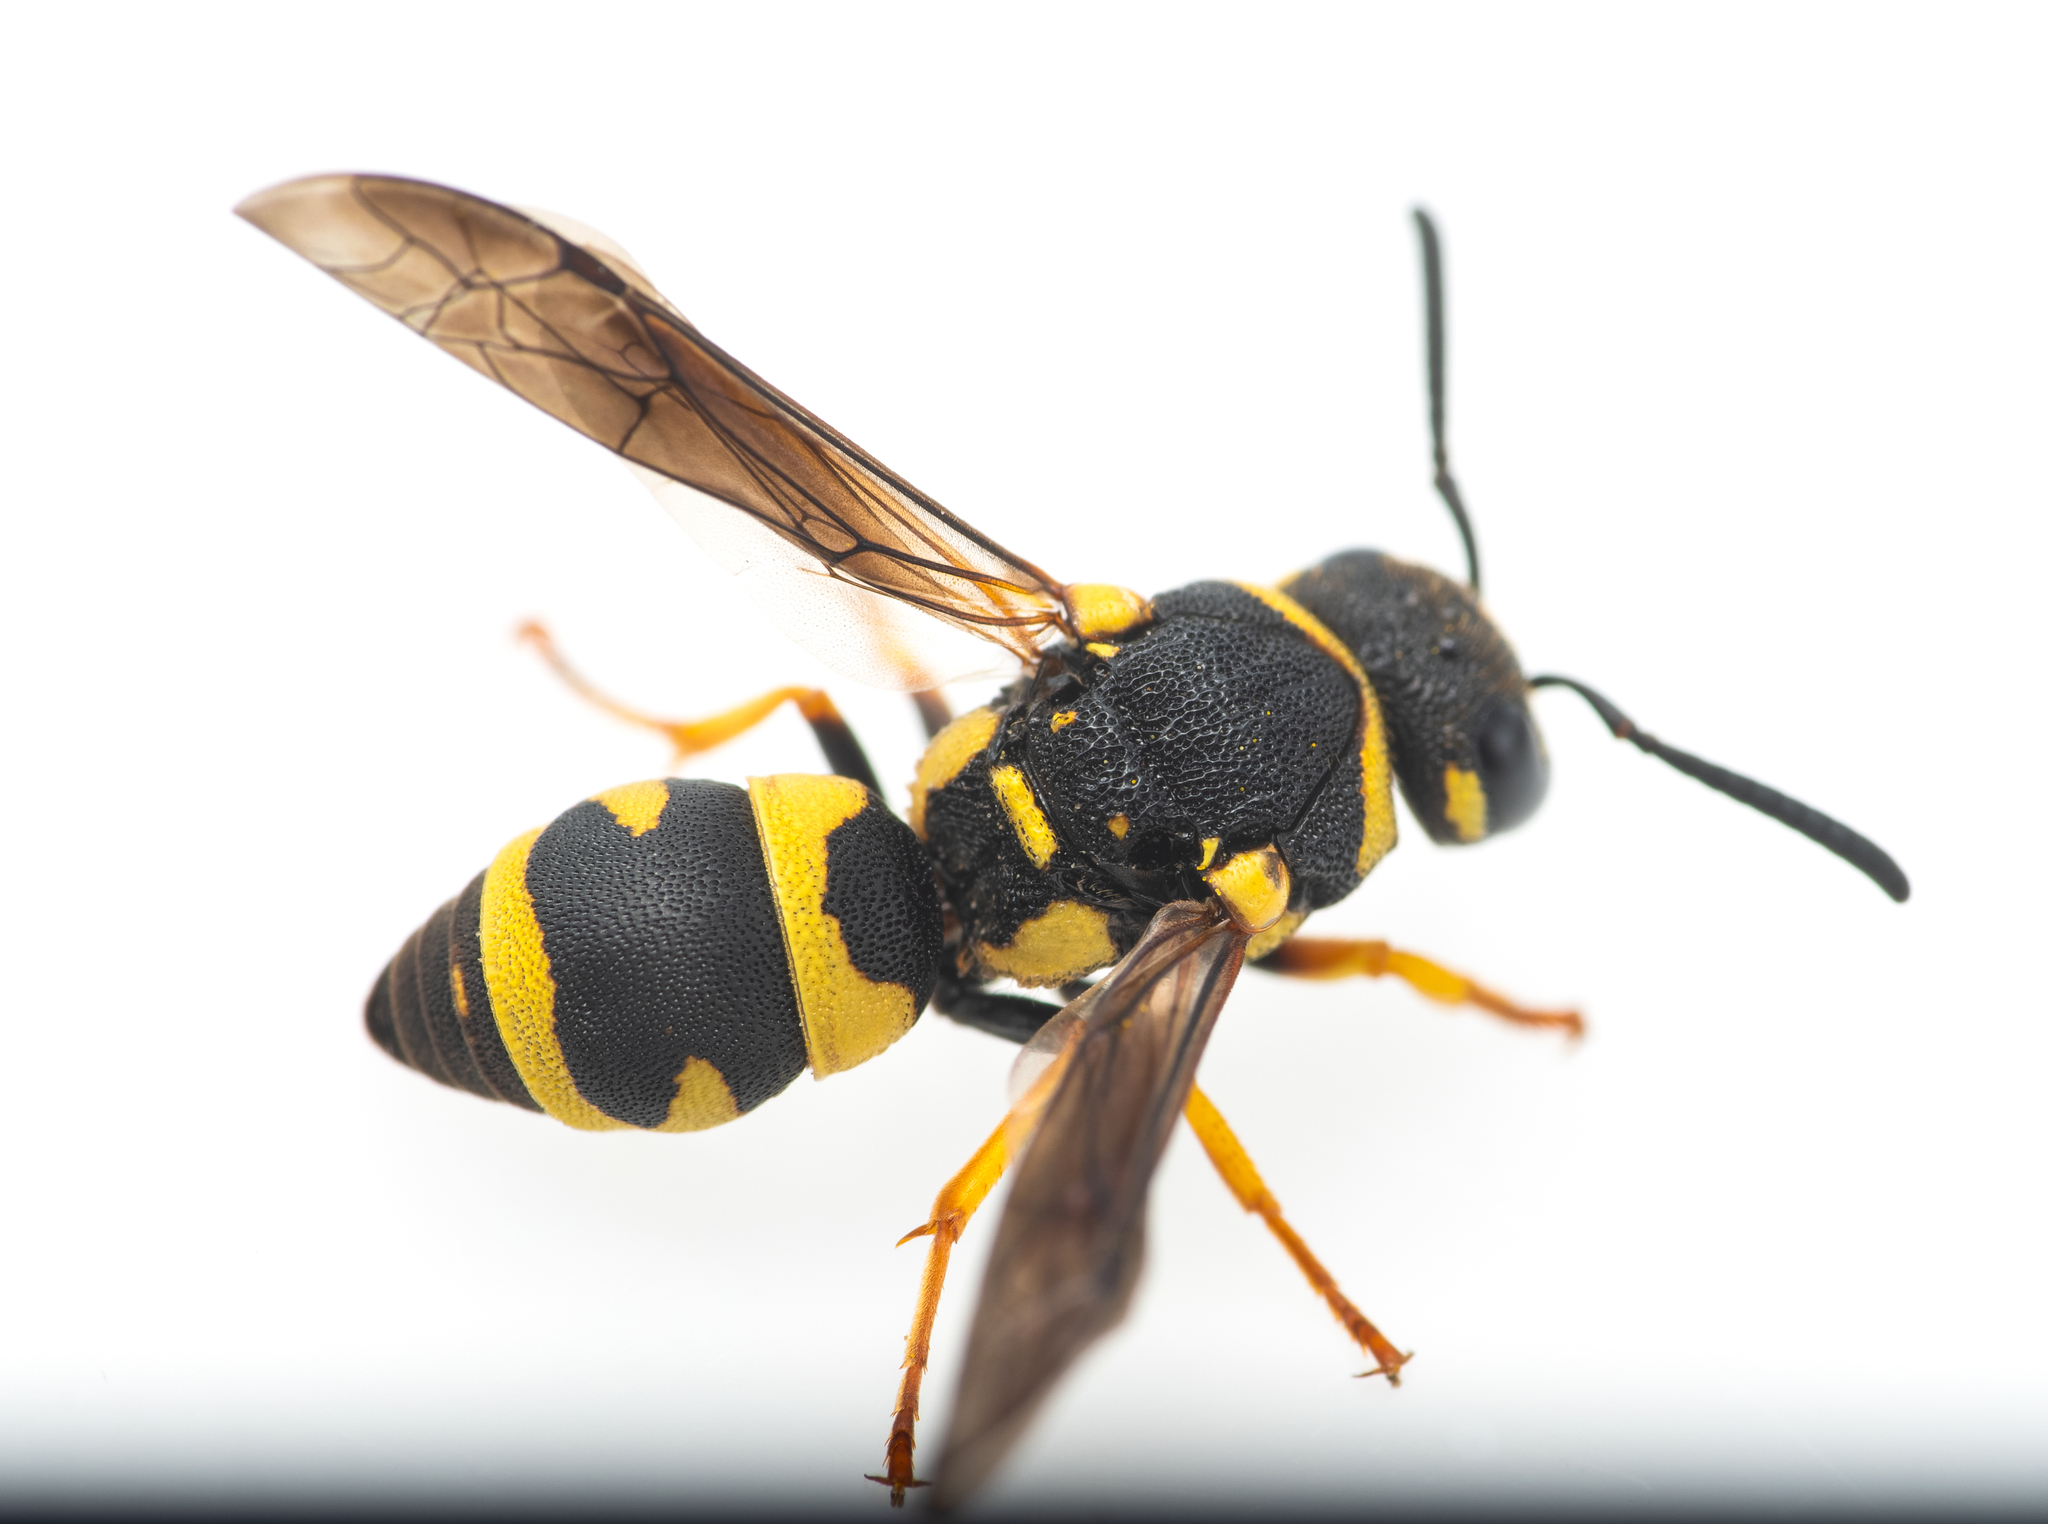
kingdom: Animalia
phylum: Arthropoda
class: Insecta
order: Hymenoptera
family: Eumenidae
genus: Parodontodynerus
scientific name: Parodontodynerus ephippium
